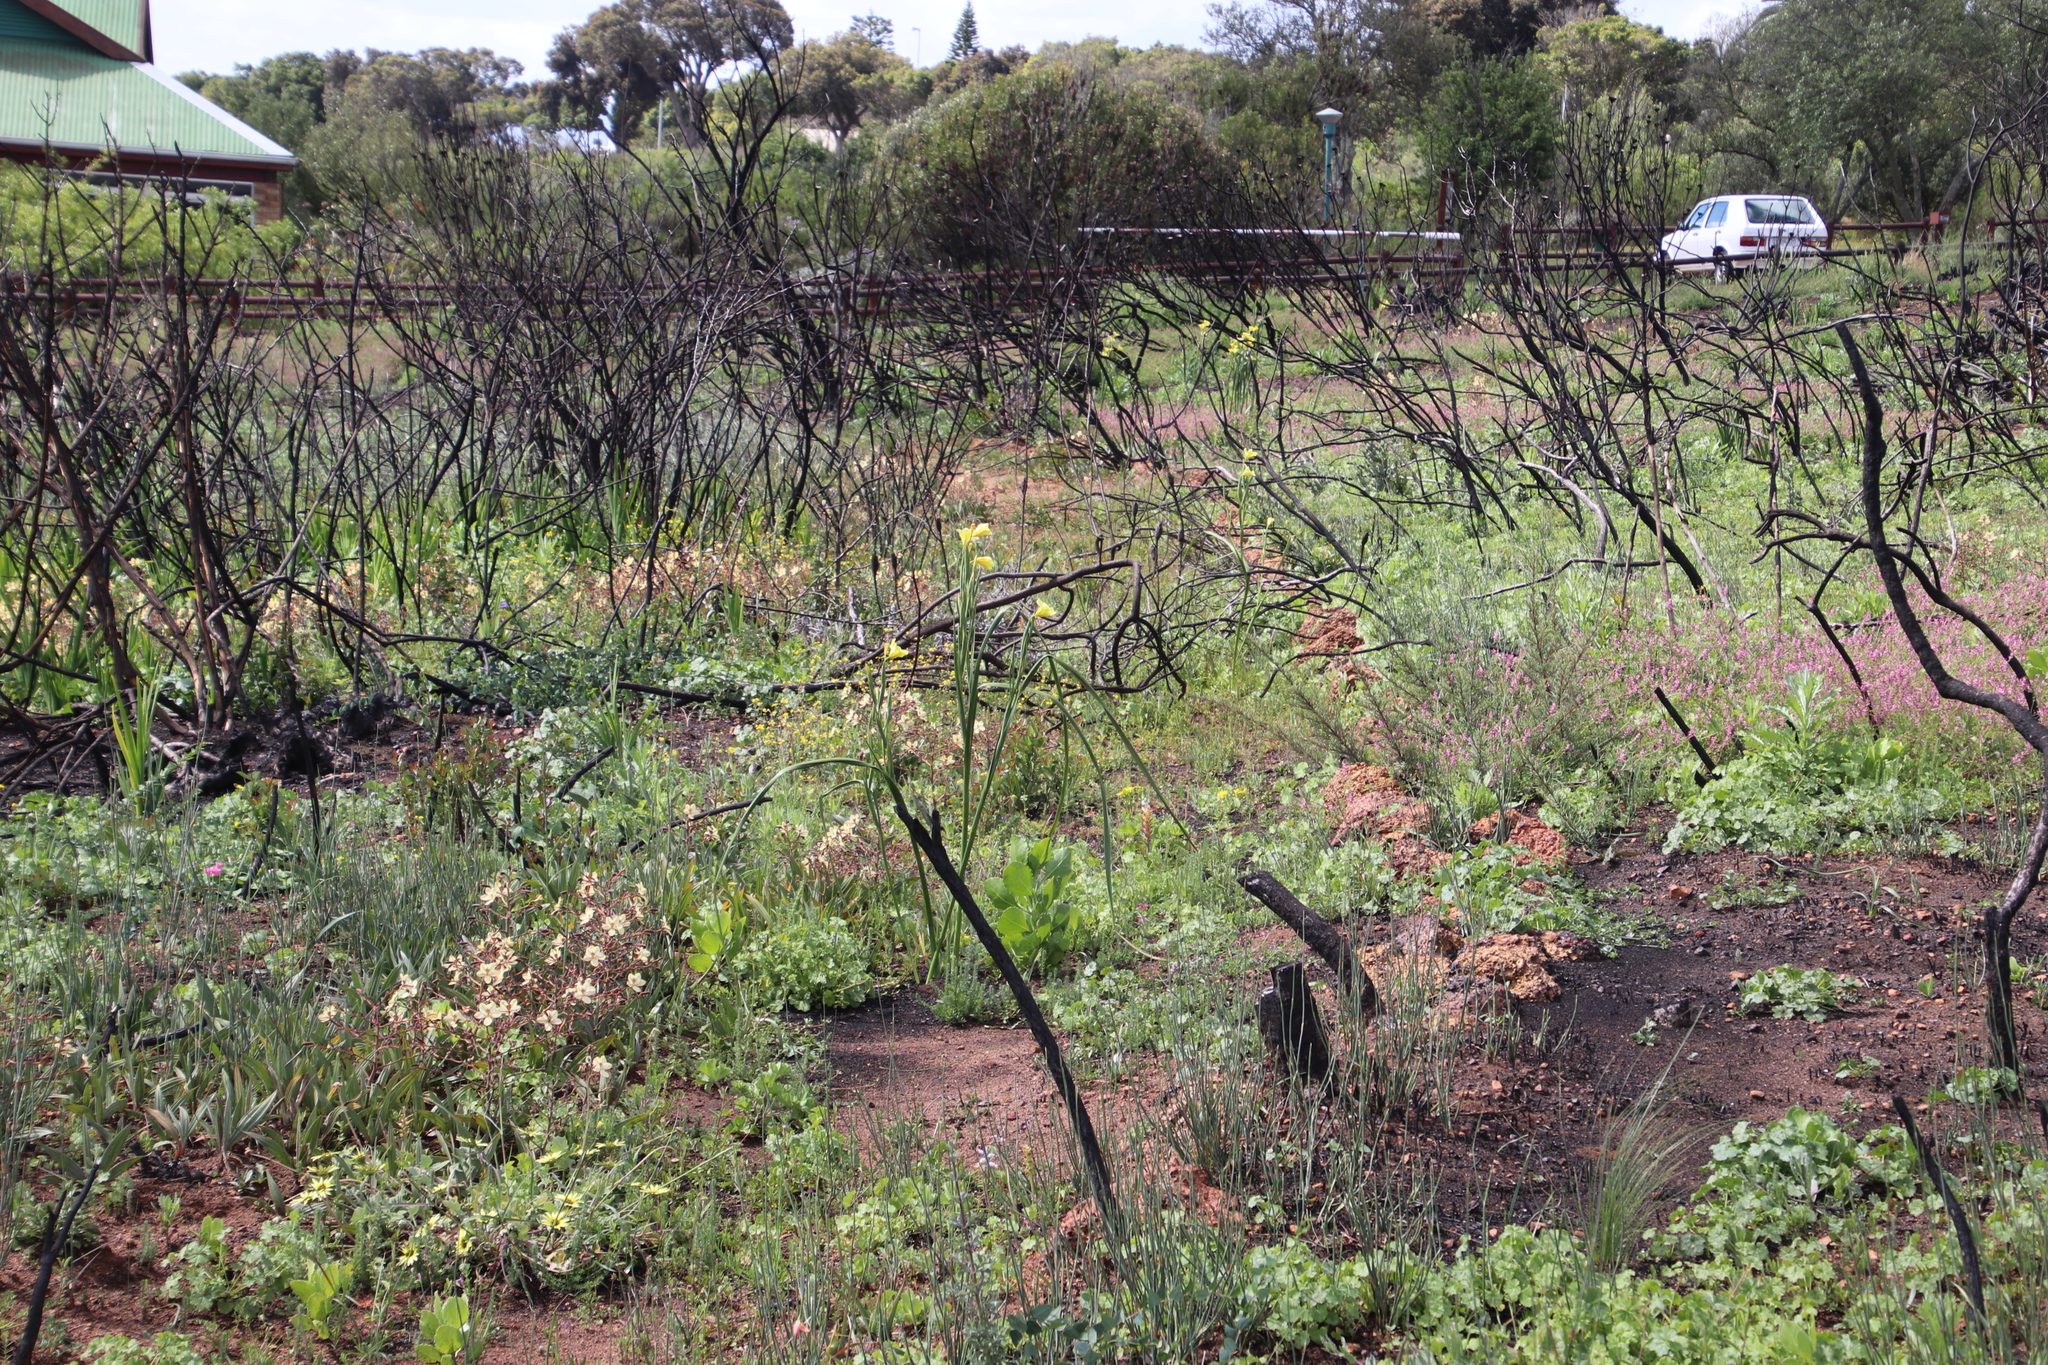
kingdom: Plantae
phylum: Tracheophyta
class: Liliopsida
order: Asparagales
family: Iridaceae
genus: Watsonia
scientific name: Watsonia meriana
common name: Bulbil bugle-lily
